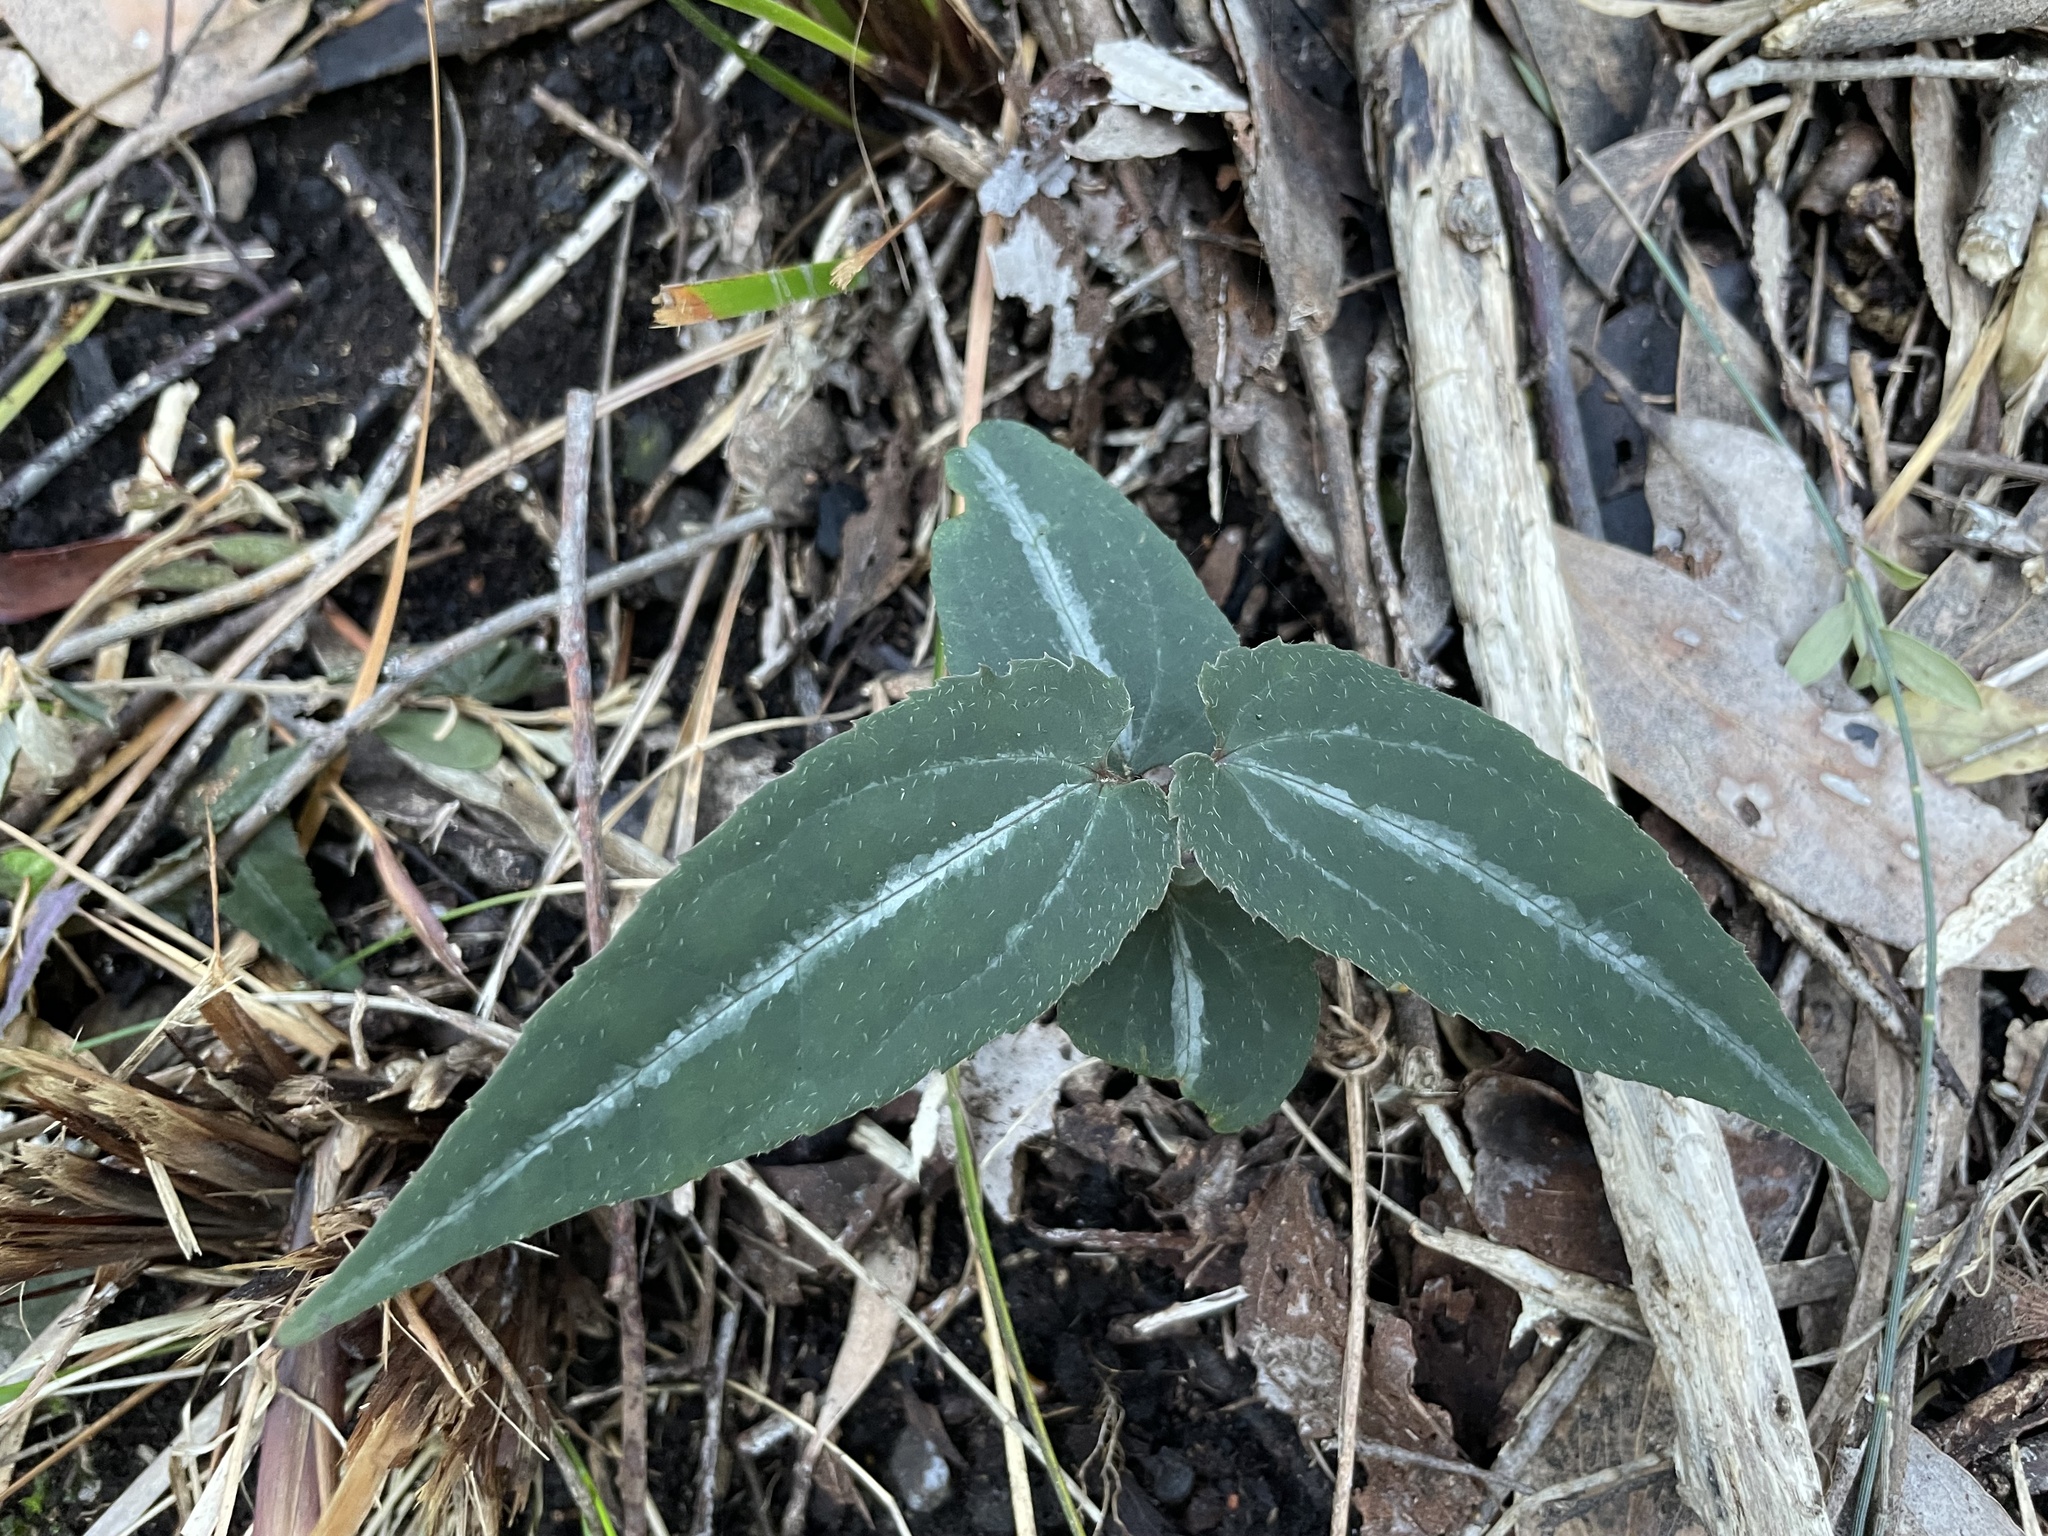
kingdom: Plantae
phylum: Tracheophyta
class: Magnoliopsida
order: Ranunculales
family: Ranunculaceae
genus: Clematis
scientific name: Clematis aristata
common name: Mountain clematis
